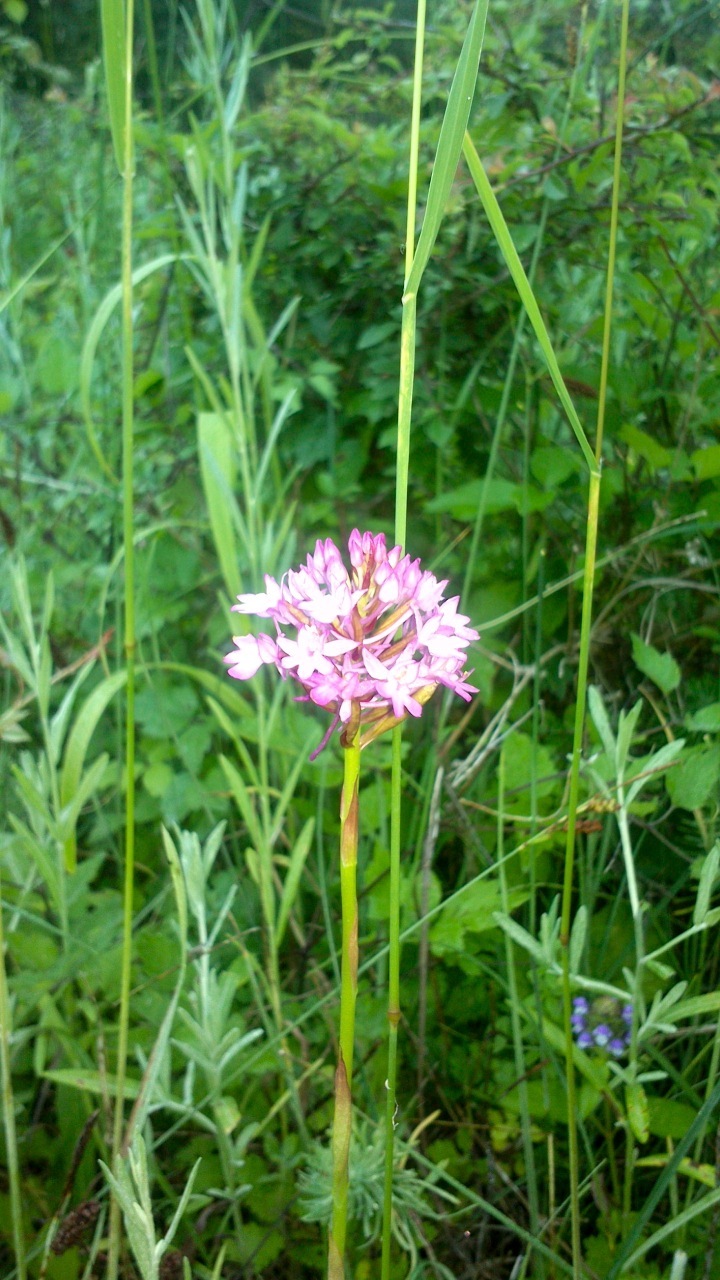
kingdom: Plantae
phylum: Tracheophyta
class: Liliopsida
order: Asparagales
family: Orchidaceae
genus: Anacamptis
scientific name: Anacamptis pyramidalis
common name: Pyramidal orchid
